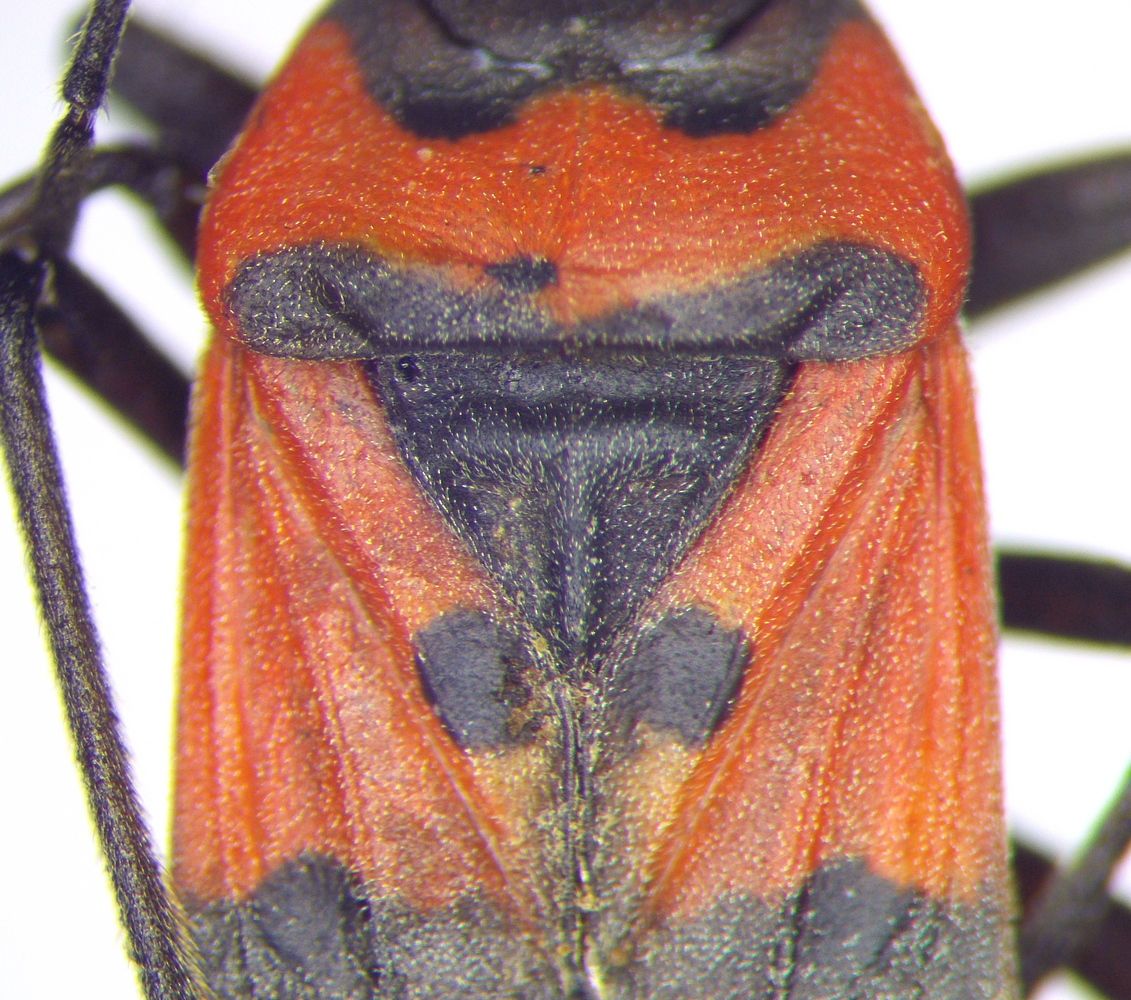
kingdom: Animalia
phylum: Arthropoda
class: Insecta
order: Hemiptera
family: Lygaeidae
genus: Lygaeus
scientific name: Lygaeus equestris
